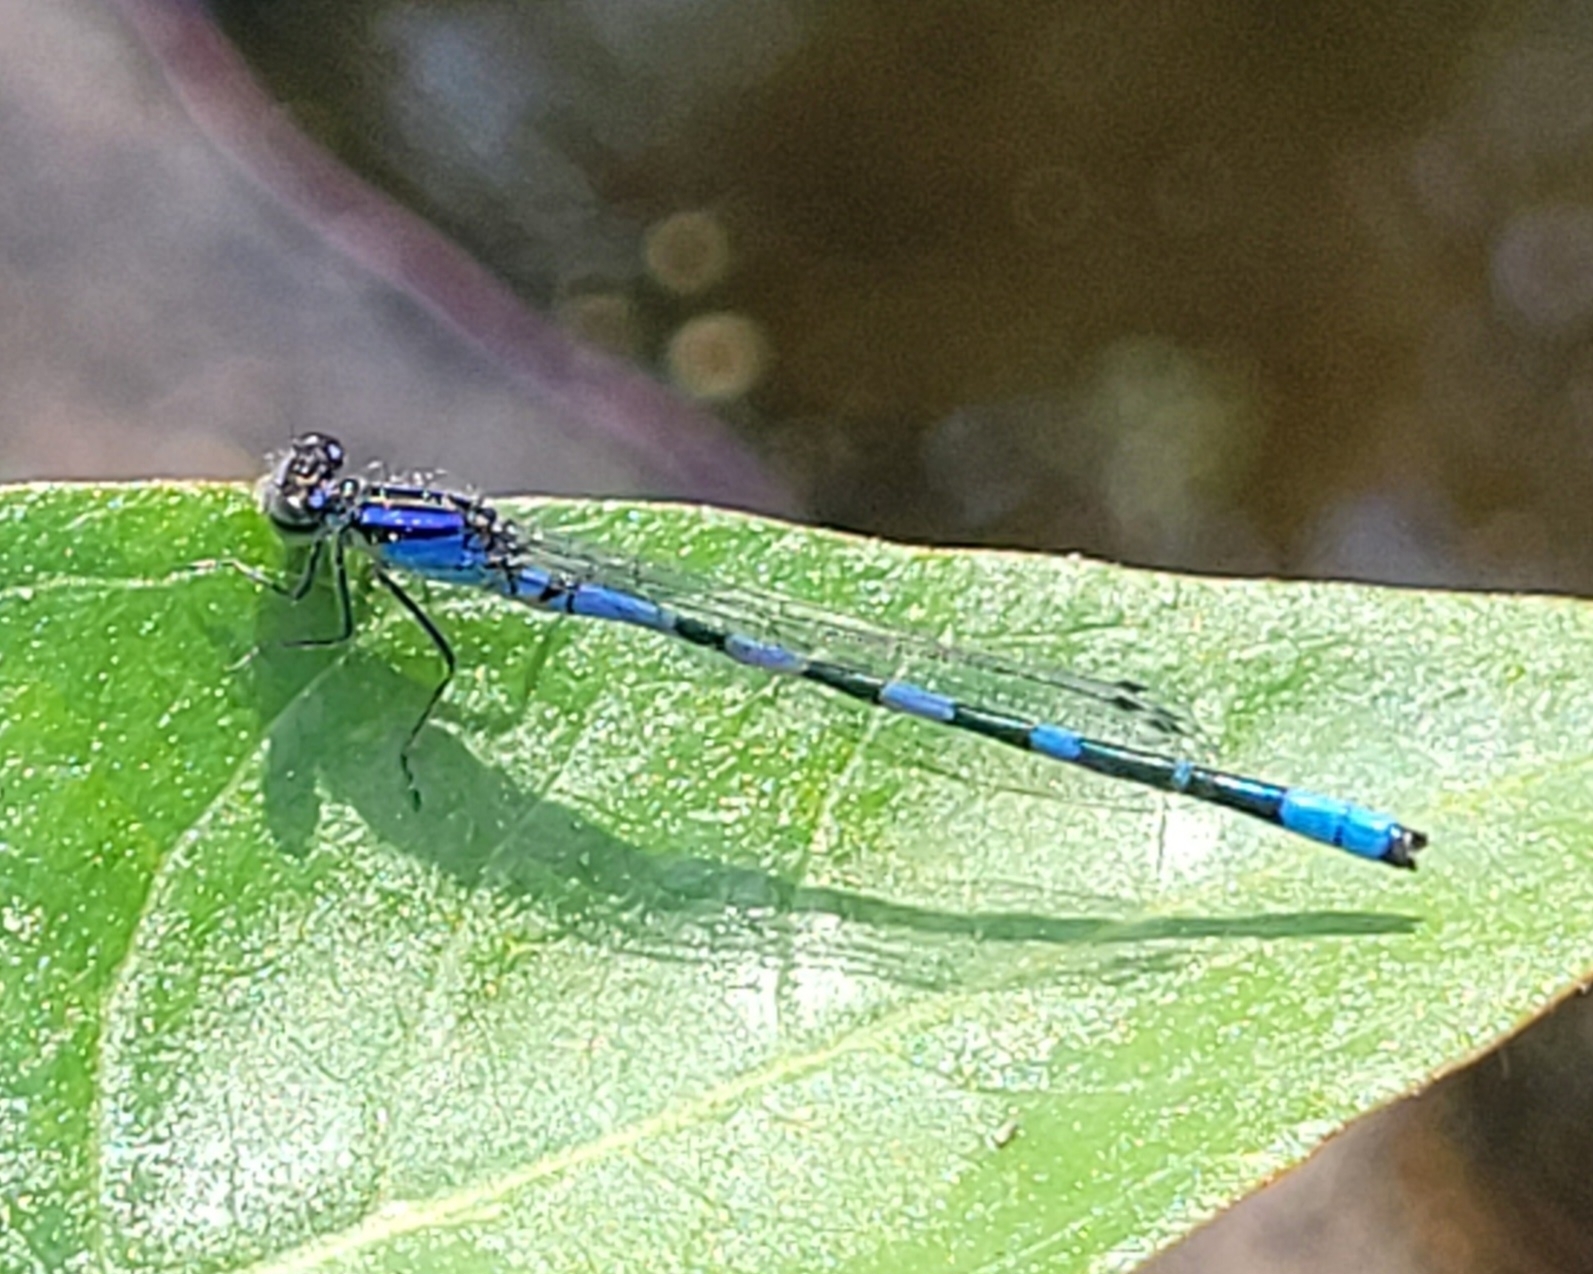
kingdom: Animalia
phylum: Arthropoda
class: Insecta
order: Odonata
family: Coenagrionidae
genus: Enallagma
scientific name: Enallagma minusculum
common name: Little bluet
